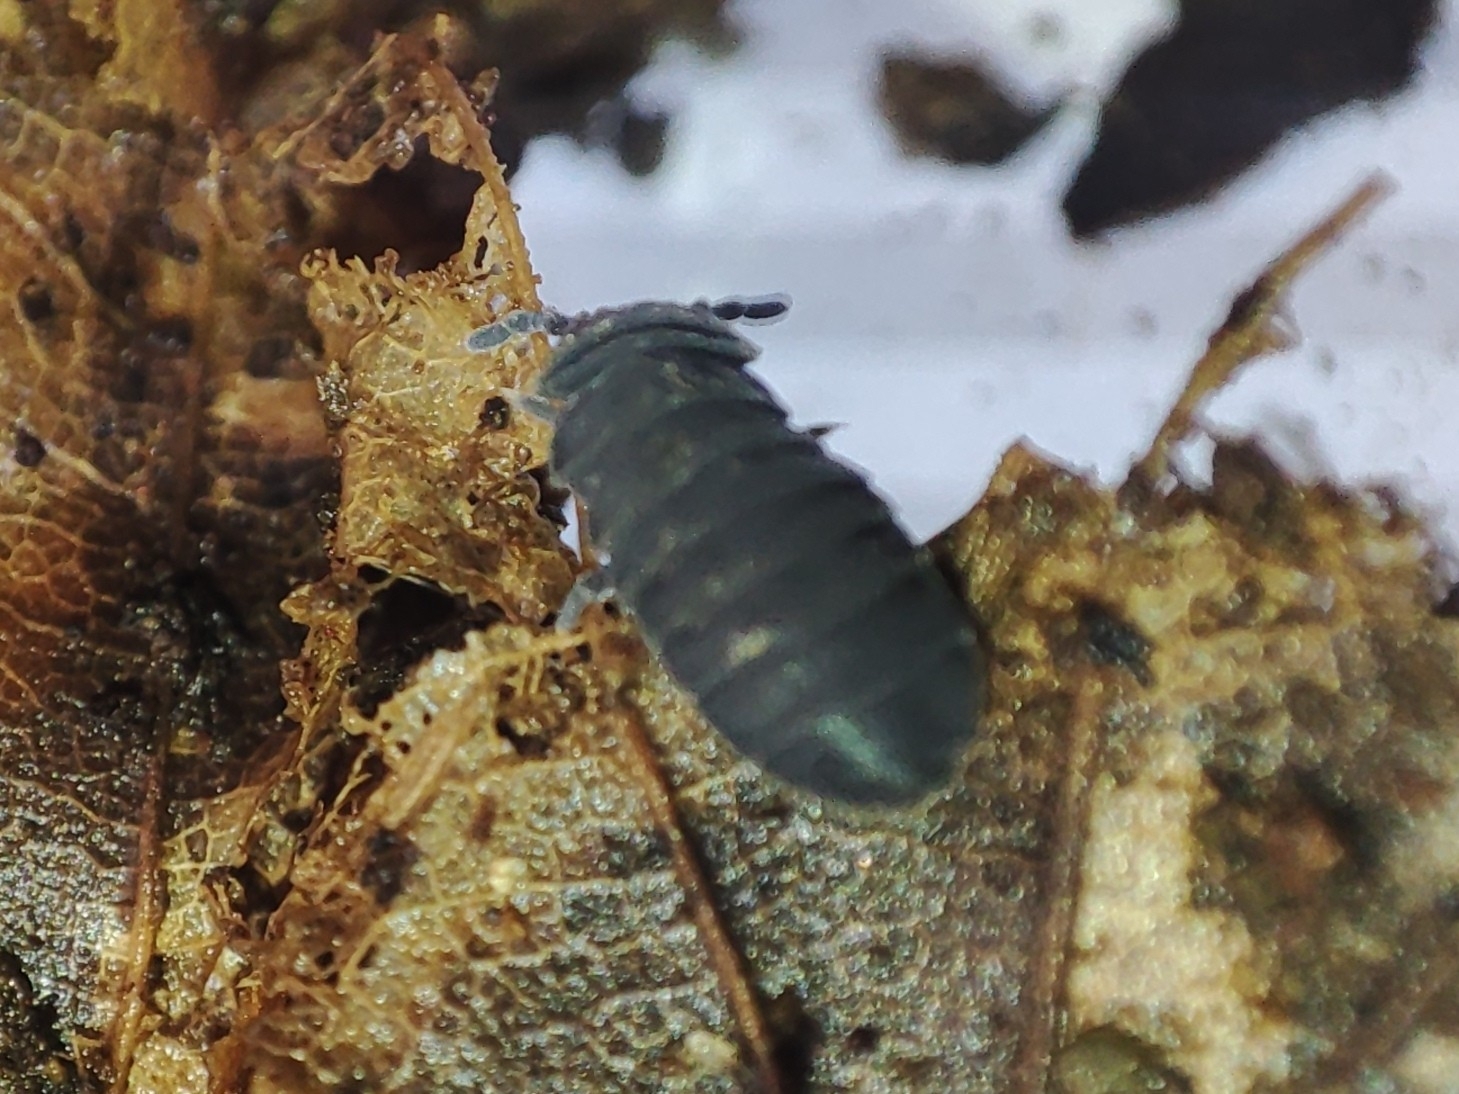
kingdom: Animalia
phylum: Arthropoda
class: Collembola
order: Poduromorpha
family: Onychiuridae
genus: Tetrodontophora
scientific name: Tetrodontophora bielanensis
